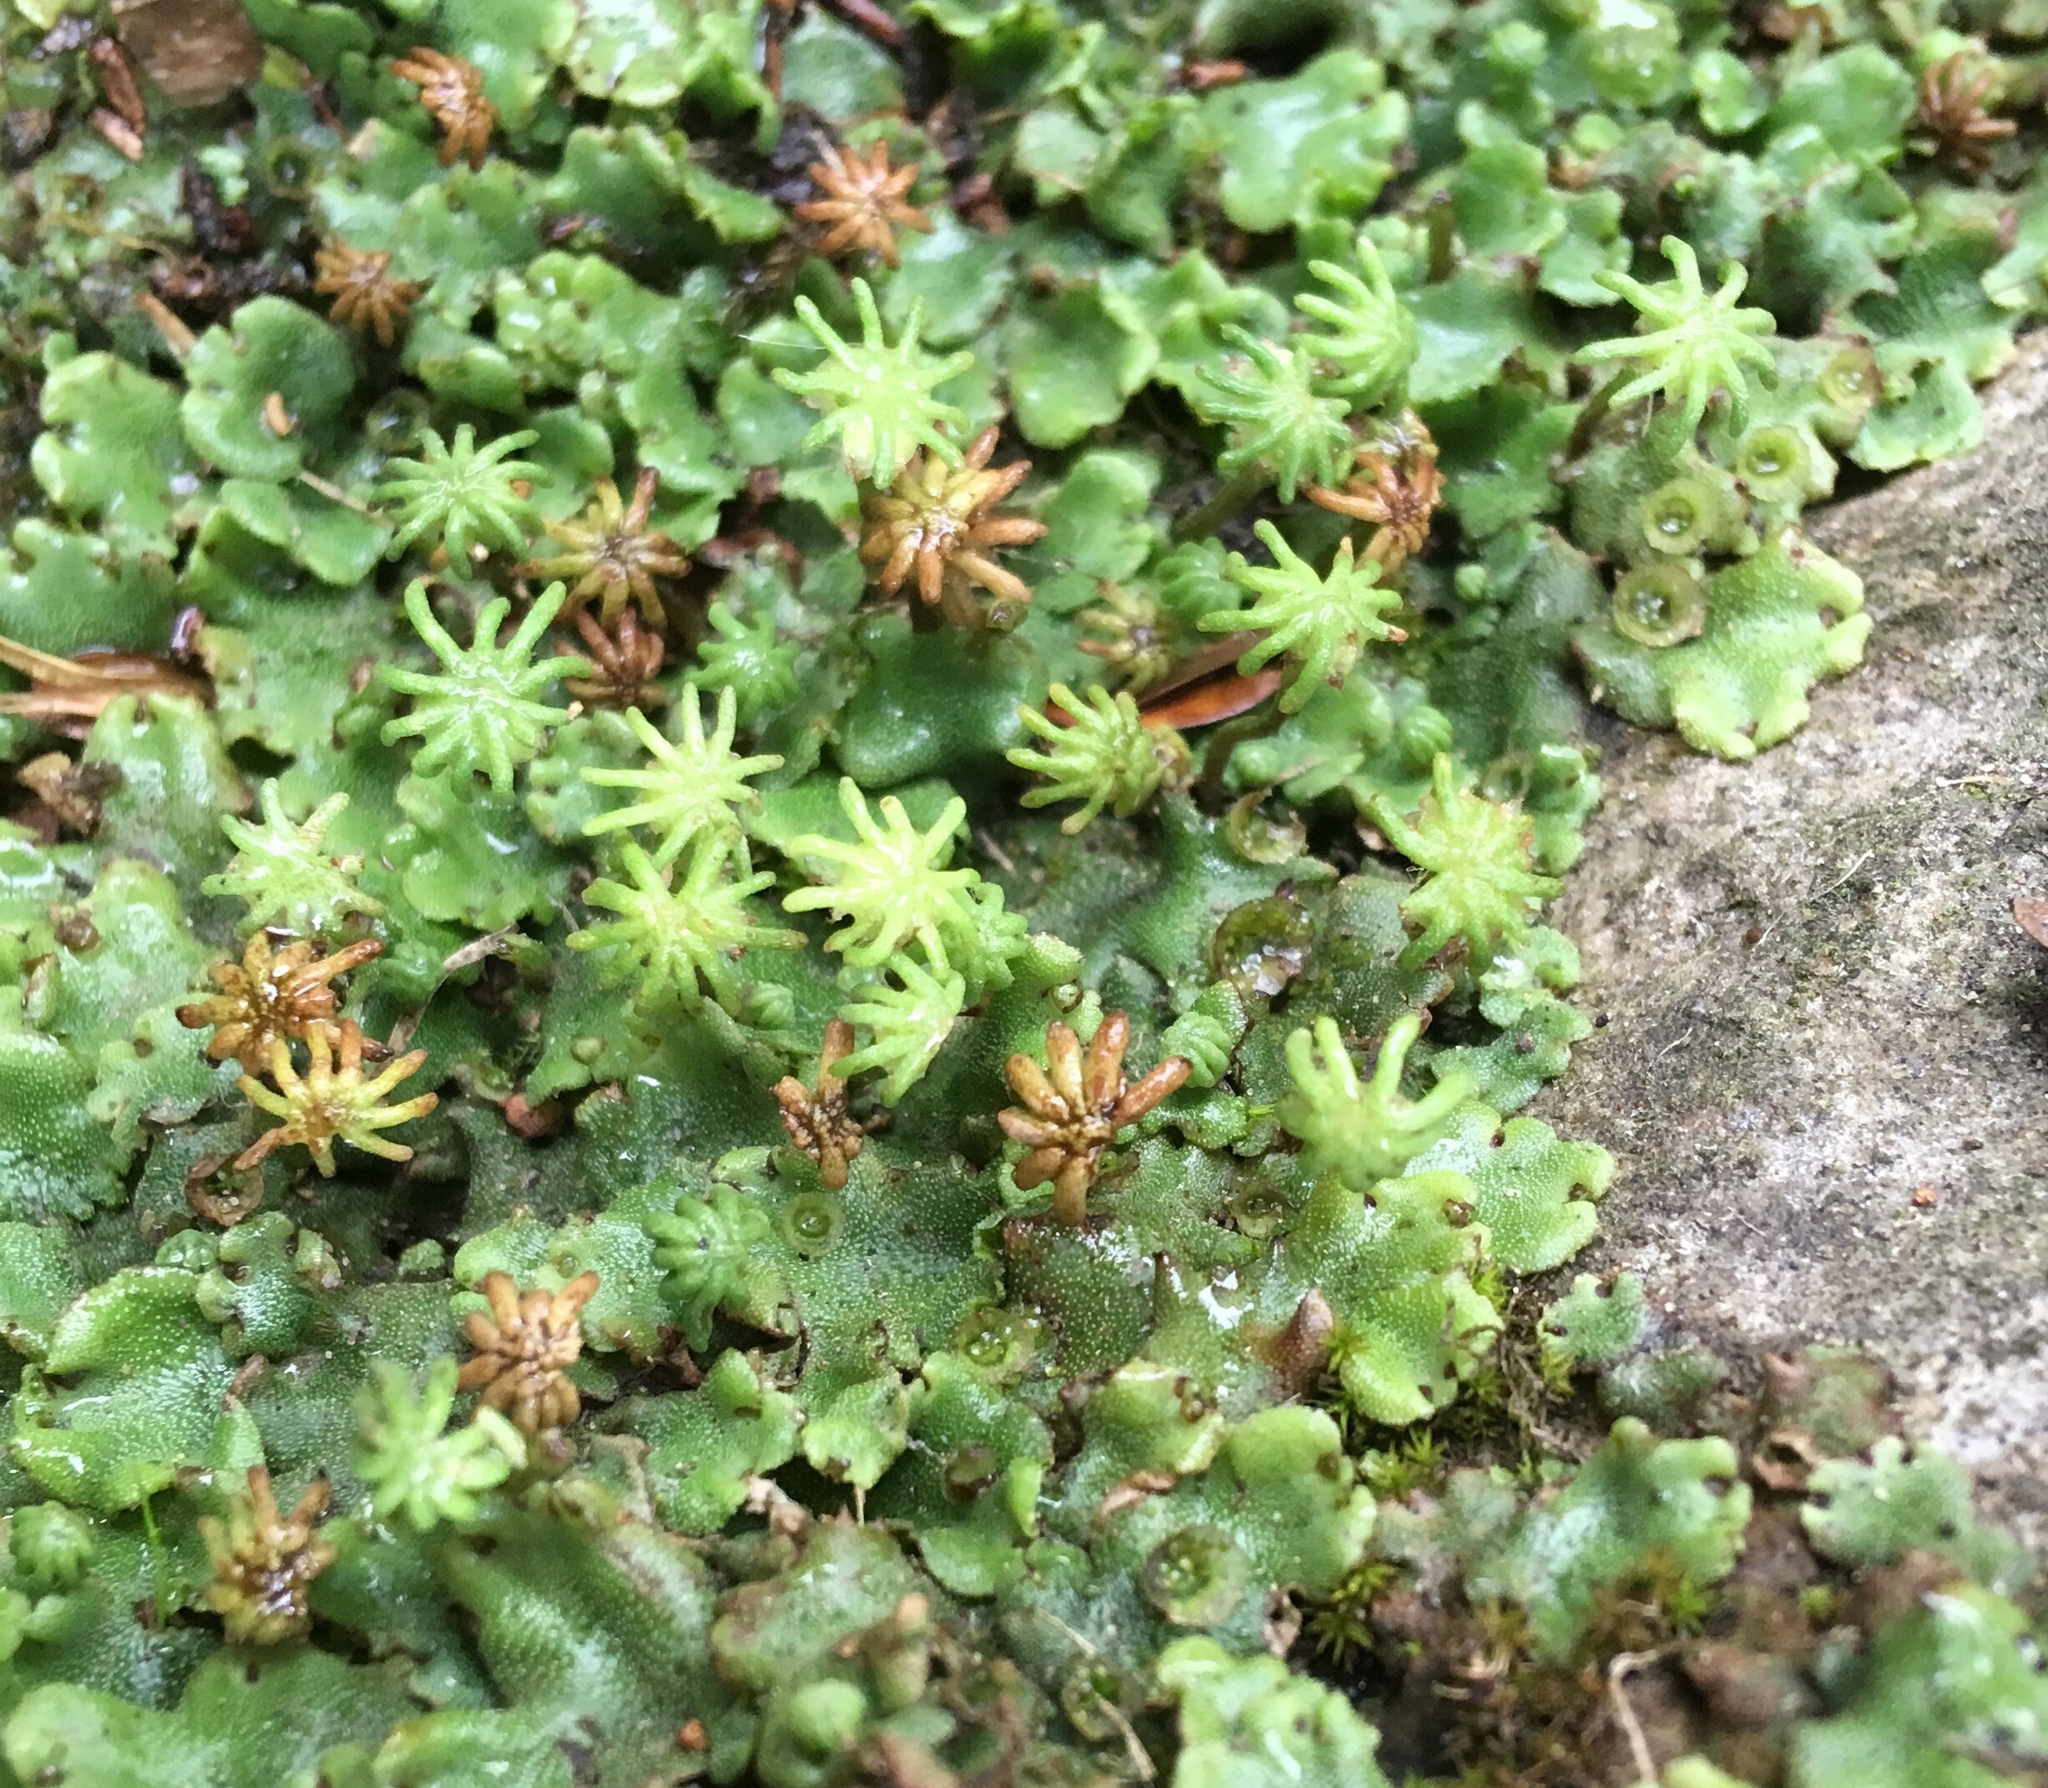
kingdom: Plantae
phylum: Marchantiophyta
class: Marchantiopsida
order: Marchantiales
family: Marchantiaceae
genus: Marchantia
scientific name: Marchantia polymorpha
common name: Common liverwort
